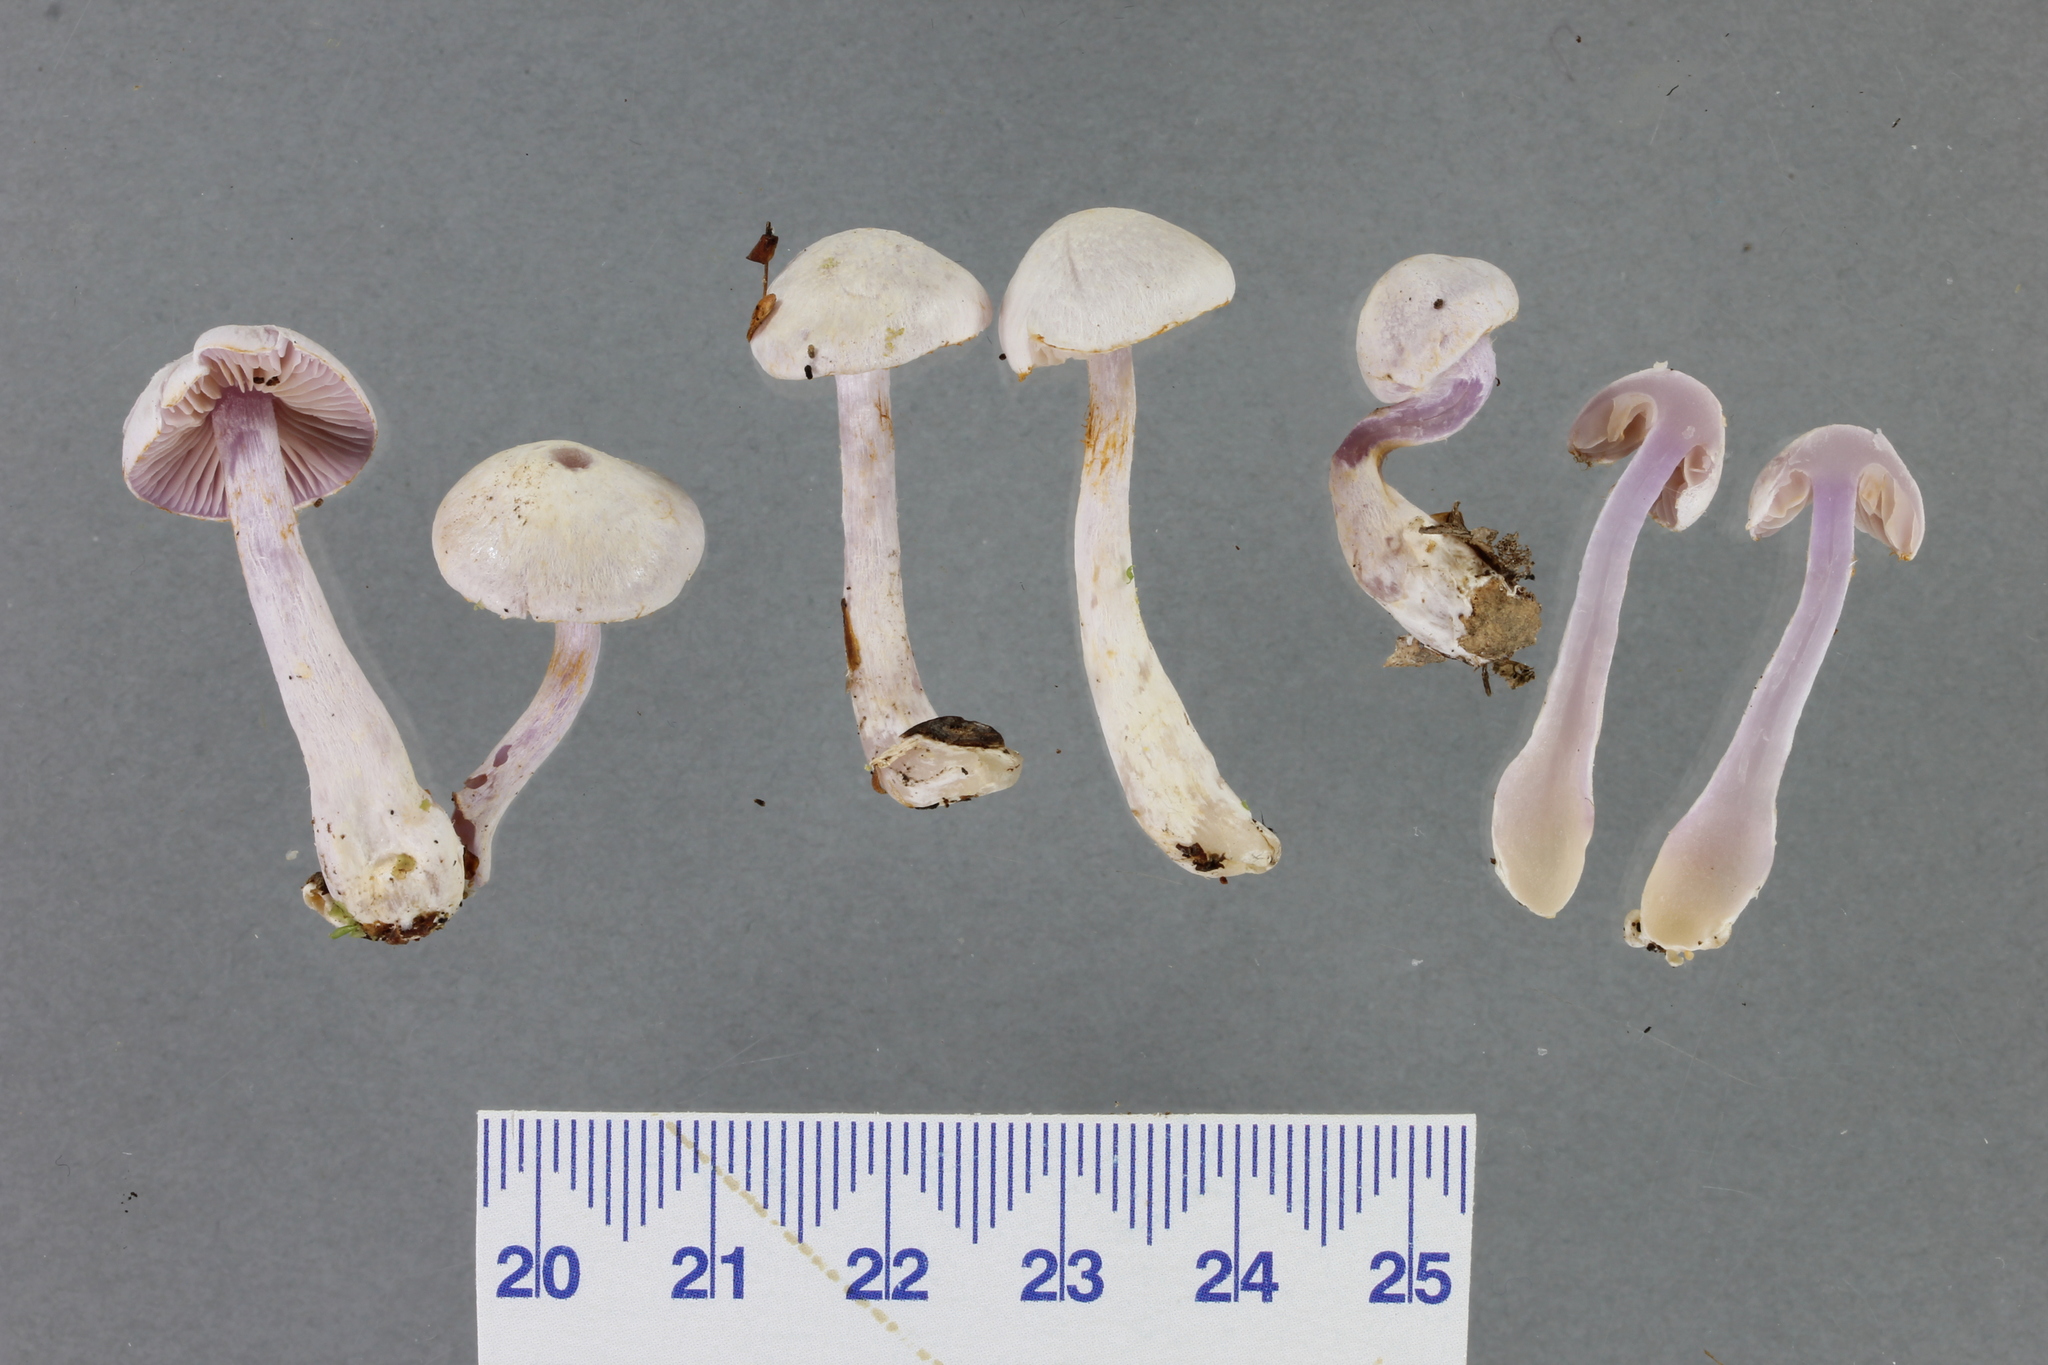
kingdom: Fungi
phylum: Basidiomycota
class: Agaricomycetes
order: Agaricales
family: Cortinariaceae
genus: Thaxterogaster
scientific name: Thaxterogaster laquellus
